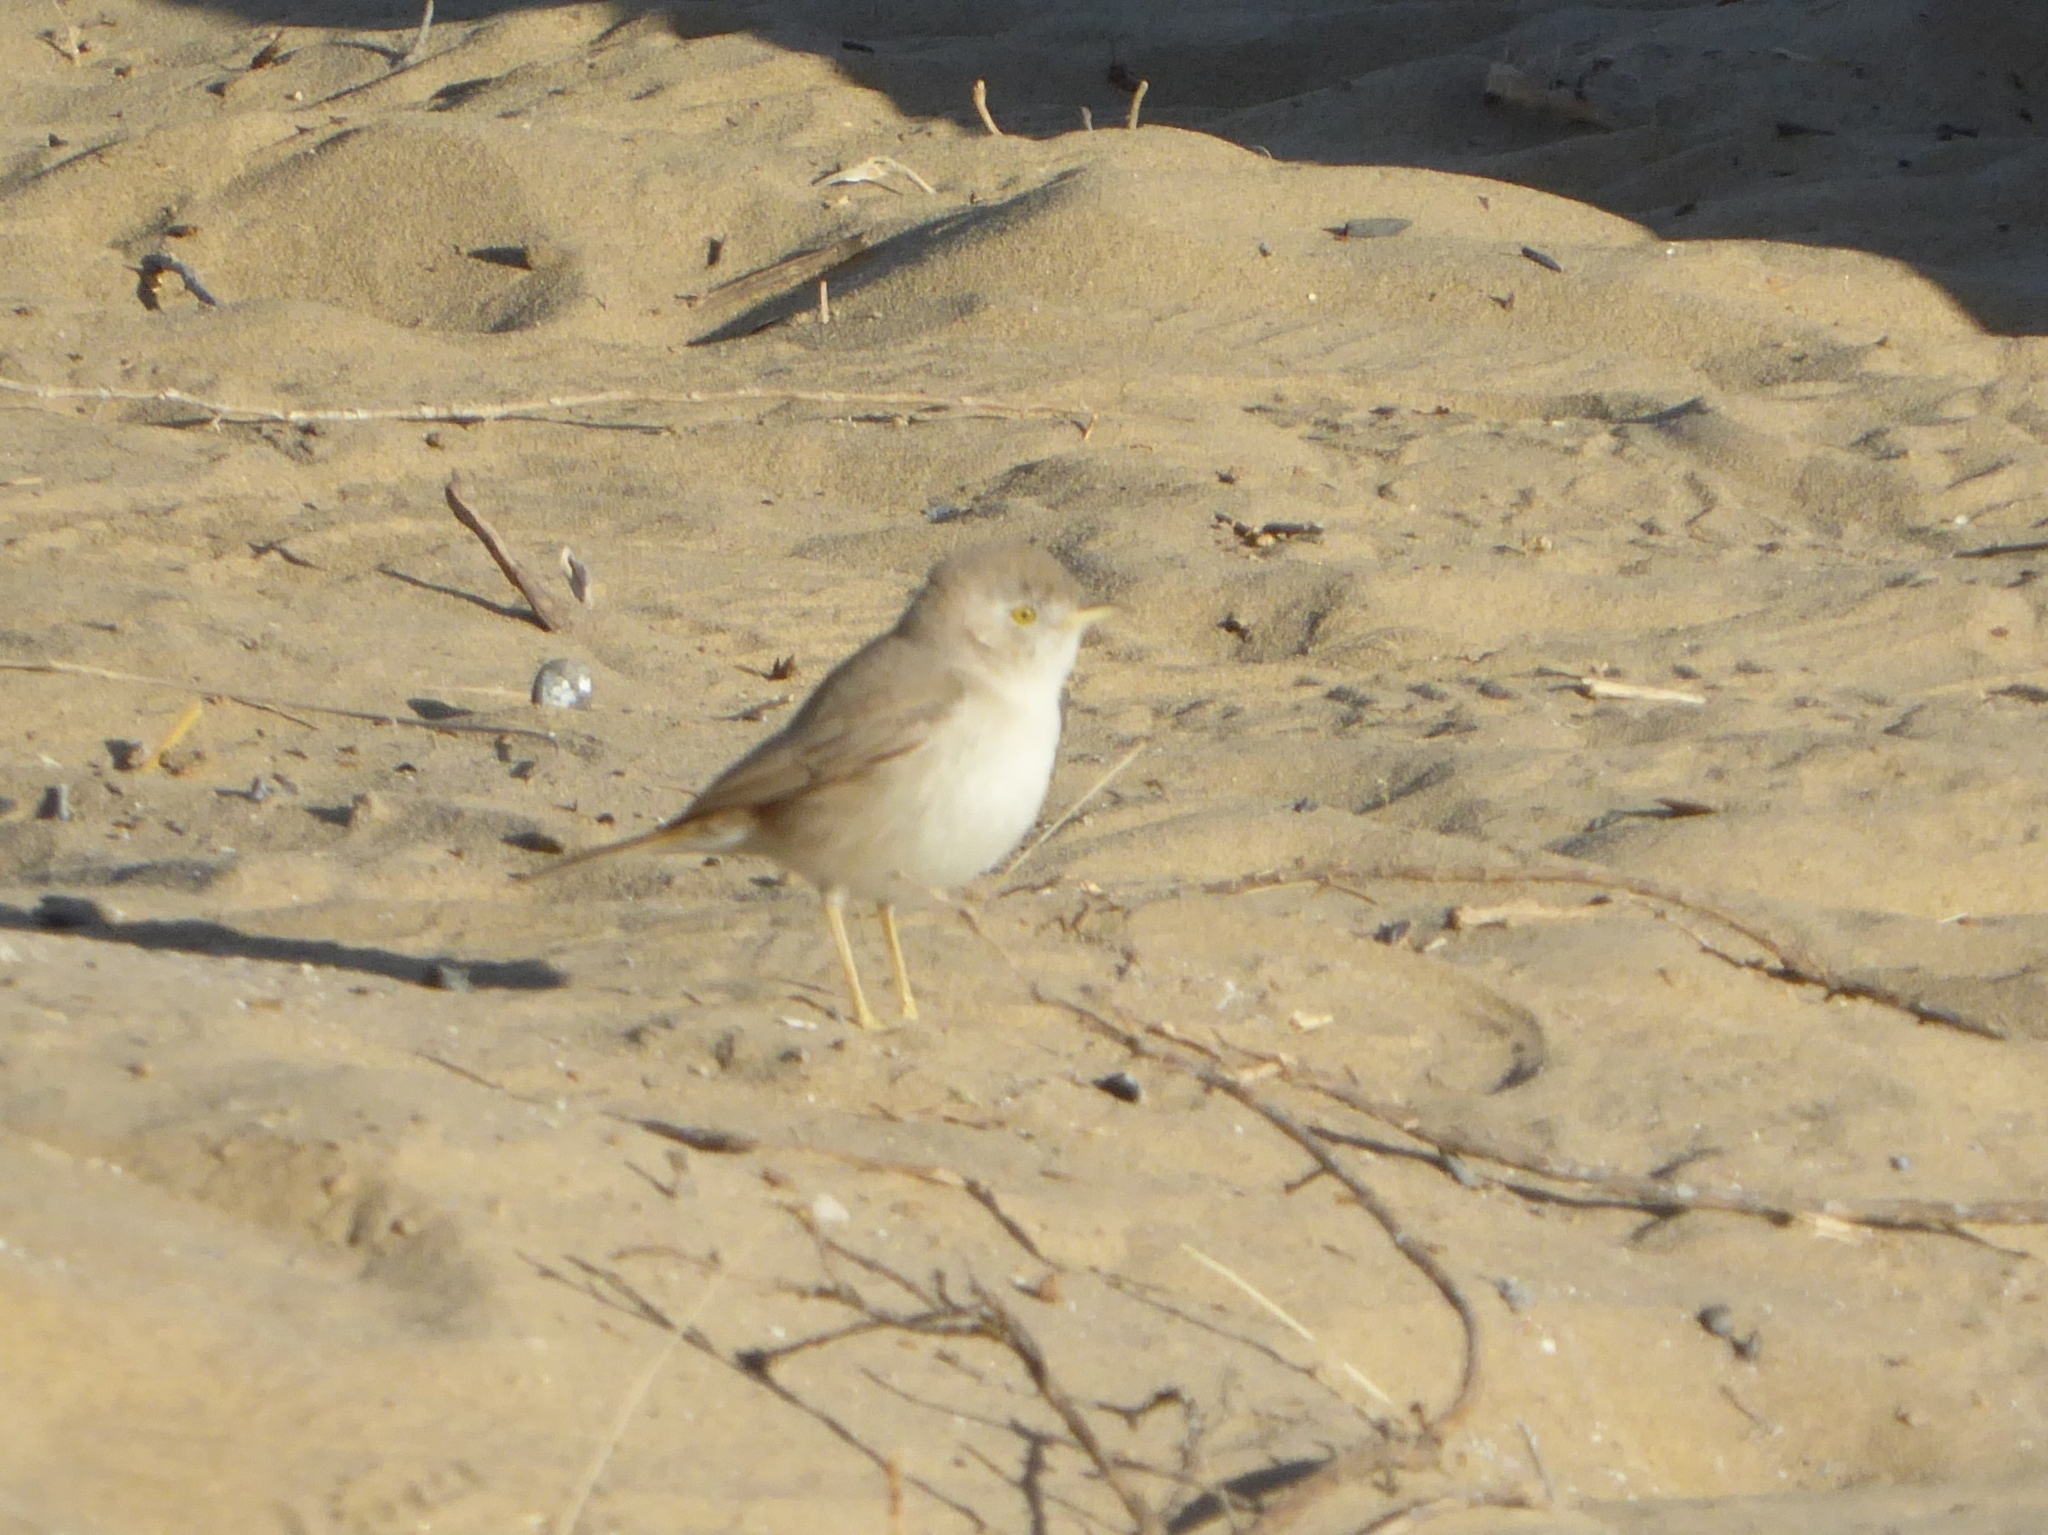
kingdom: Animalia
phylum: Chordata
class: Aves
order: Passeriformes
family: Sylviidae
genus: Sylvia
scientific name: Sylvia nana
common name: Asian desert warbler
